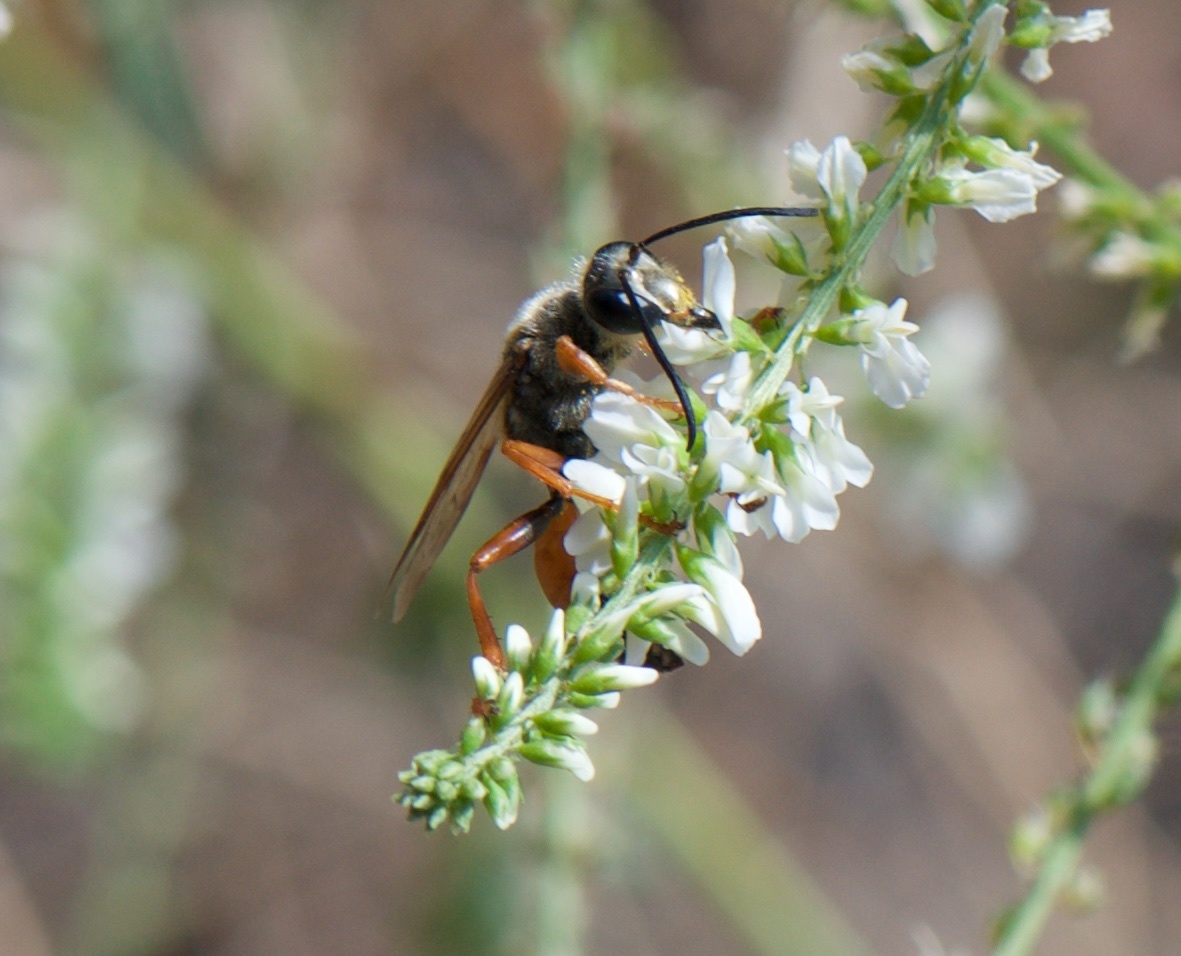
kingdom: Animalia
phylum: Arthropoda
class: Insecta
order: Hymenoptera
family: Sphecidae
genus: Sphex
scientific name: Sphex ichneumoneus
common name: Great golden digger wasp
